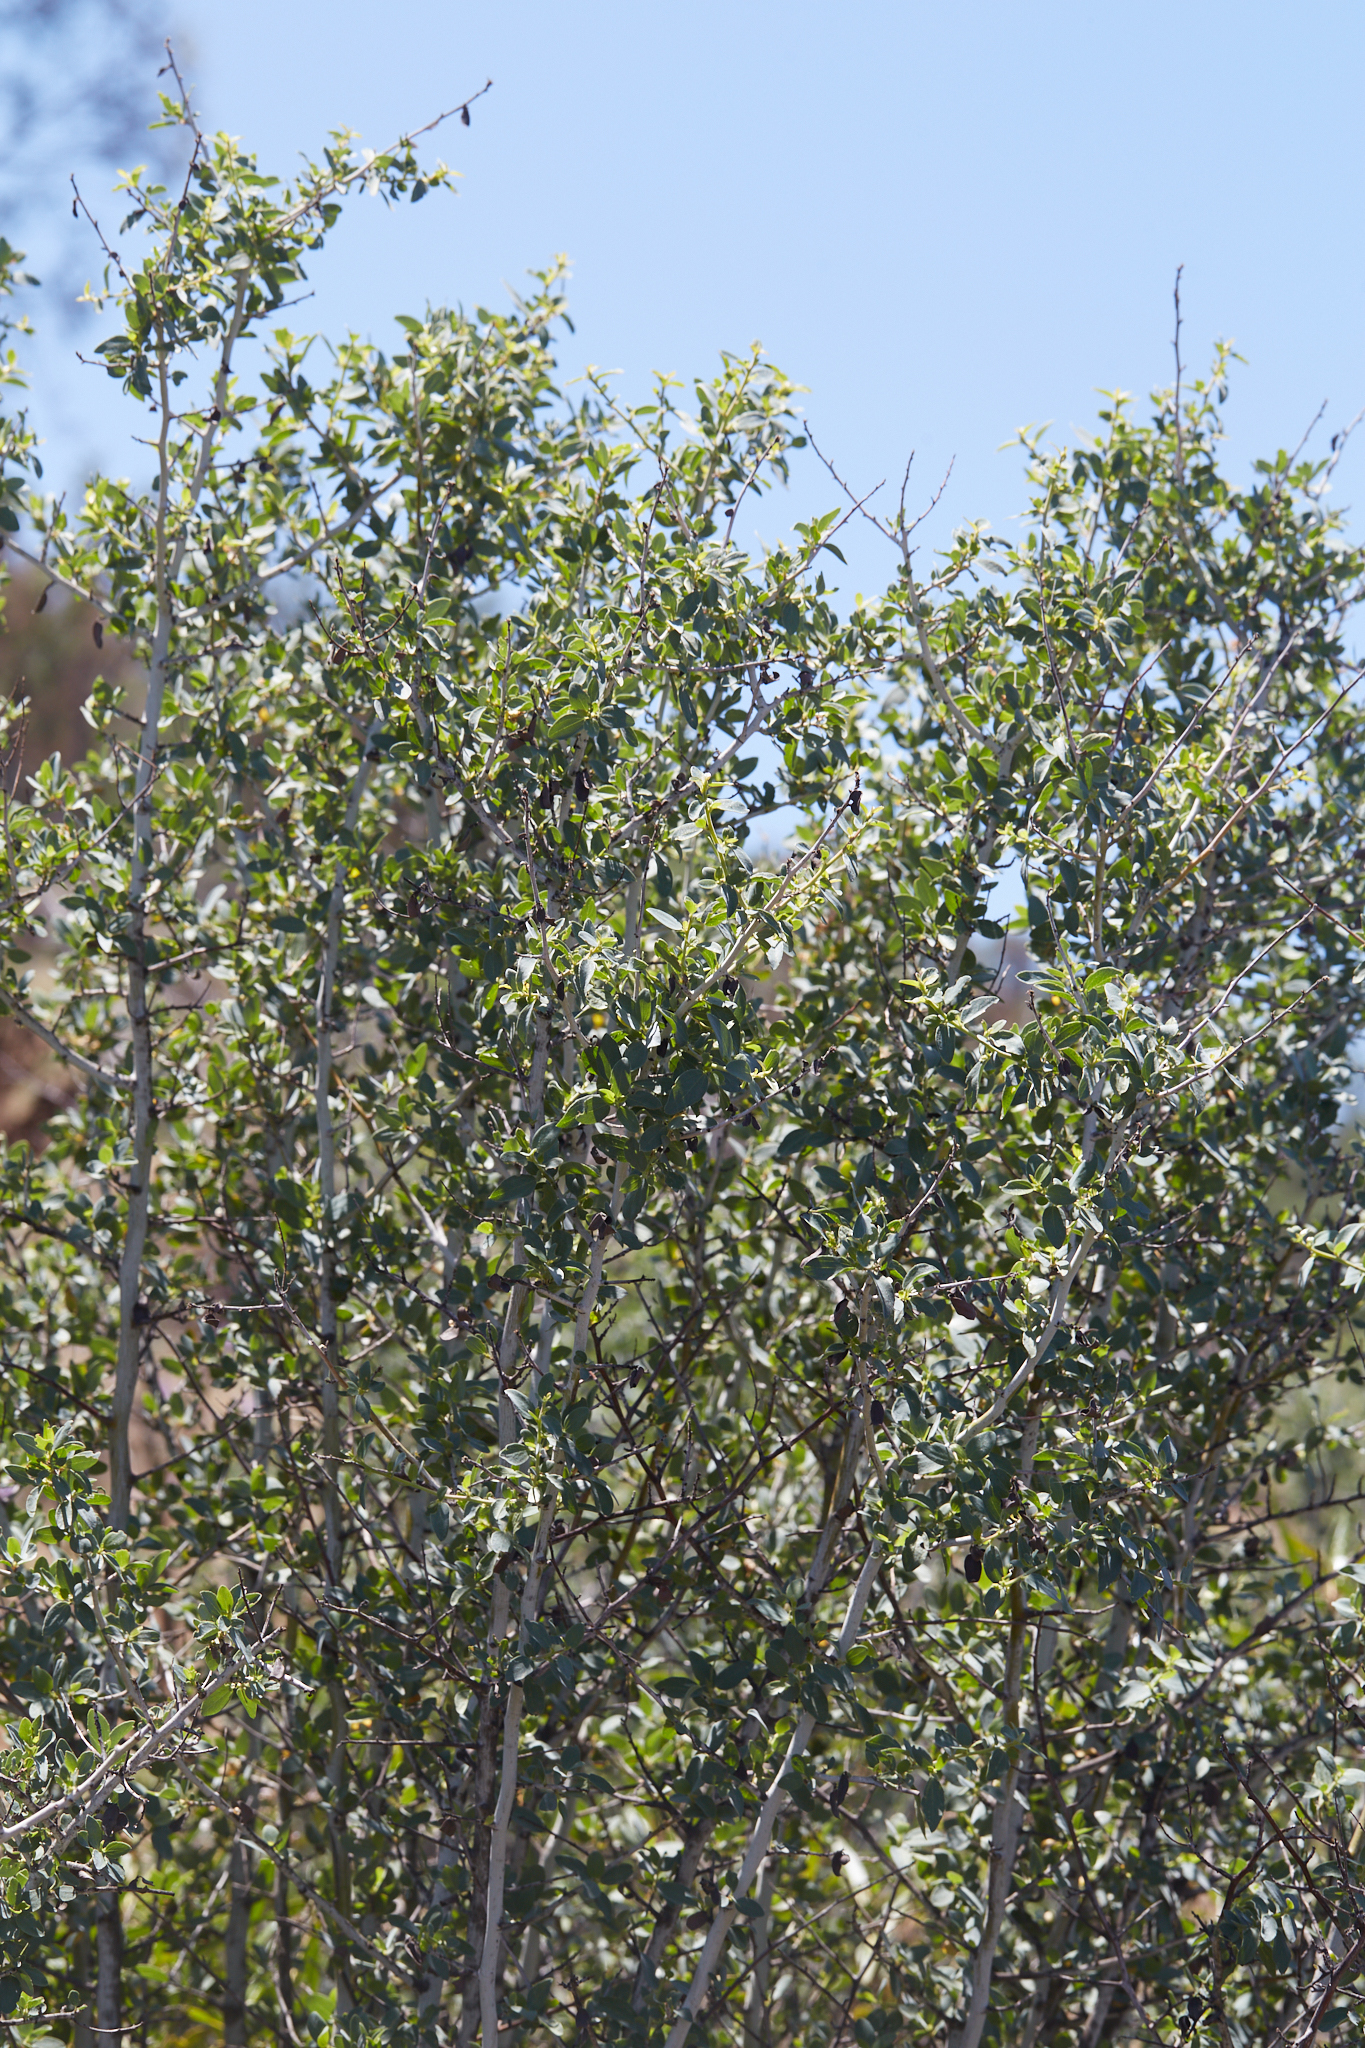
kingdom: Plantae
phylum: Tracheophyta
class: Magnoliopsida
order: Rosales
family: Rhamnaceae
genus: Ceanothus
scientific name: Ceanothus leucodermis
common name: Chaparral whitethorn
